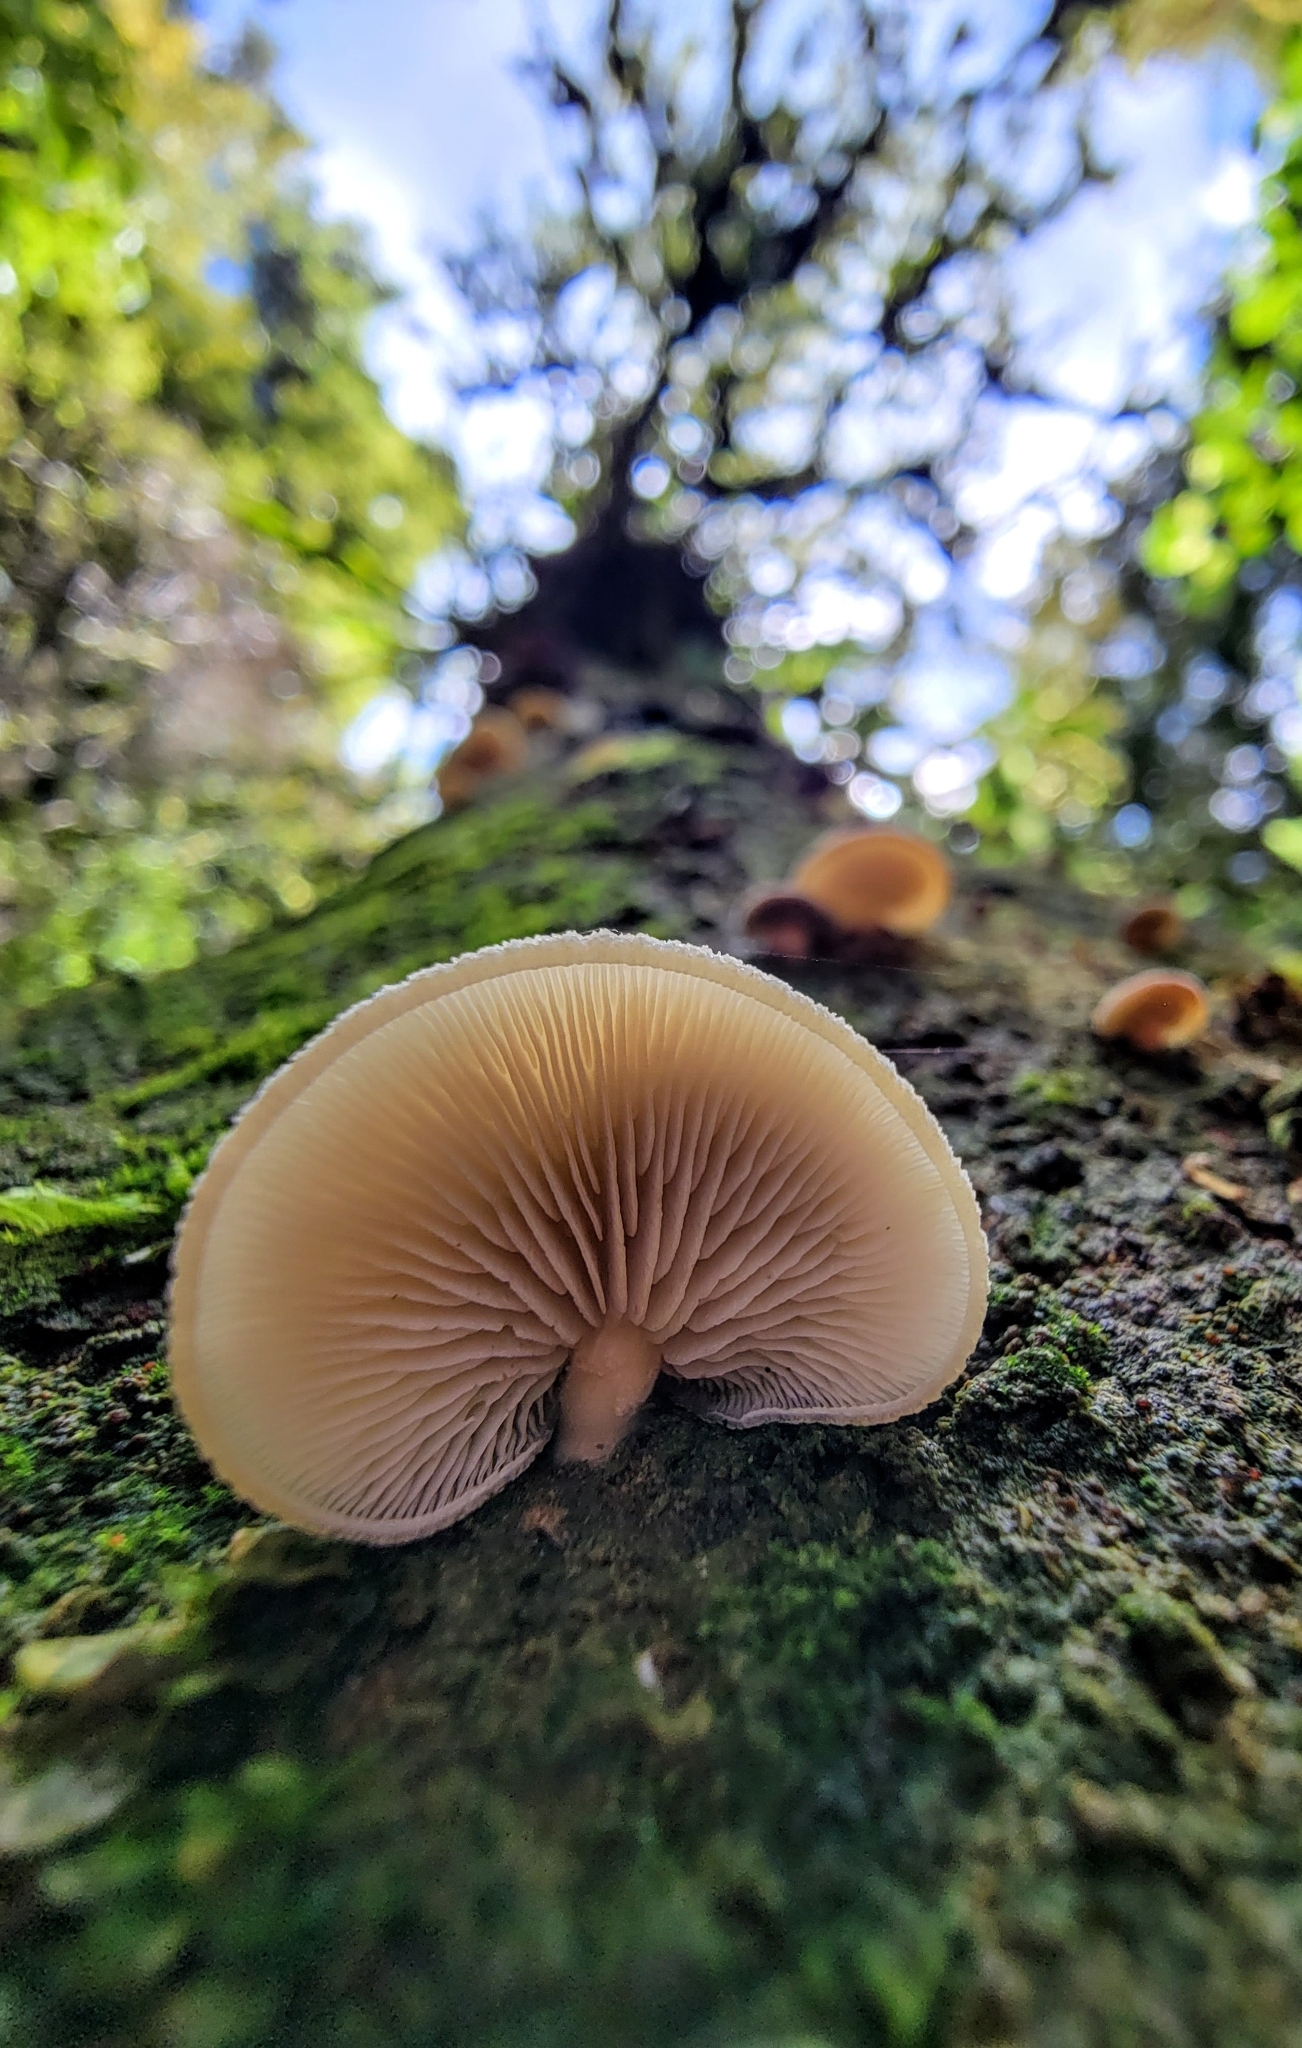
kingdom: Fungi
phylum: Basidiomycota
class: Agaricomycetes
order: Agaricales
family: Tricholomataceae
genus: Conchomyces
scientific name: Conchomyces bursiformis
